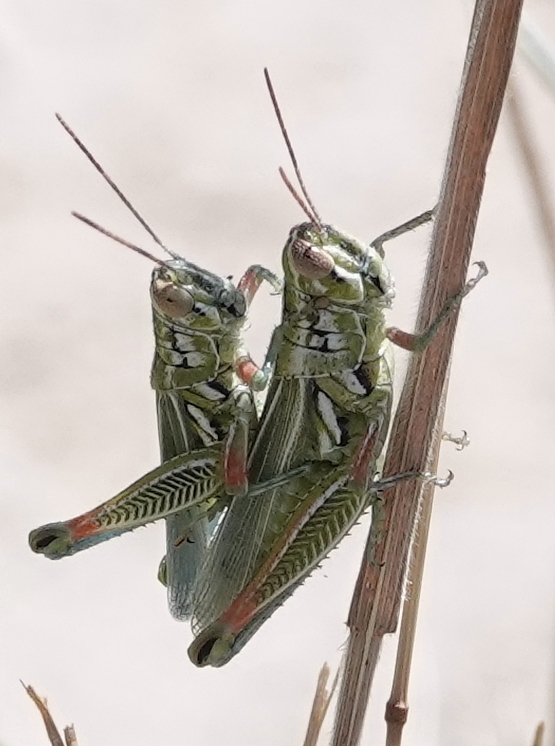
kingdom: Animalia
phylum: Arthropoda
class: Insecta
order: Orthoptera
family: Acrididae
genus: Hesperotettix
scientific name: Hesperotettix viridis
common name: Meadow purple-striped grasshopper
